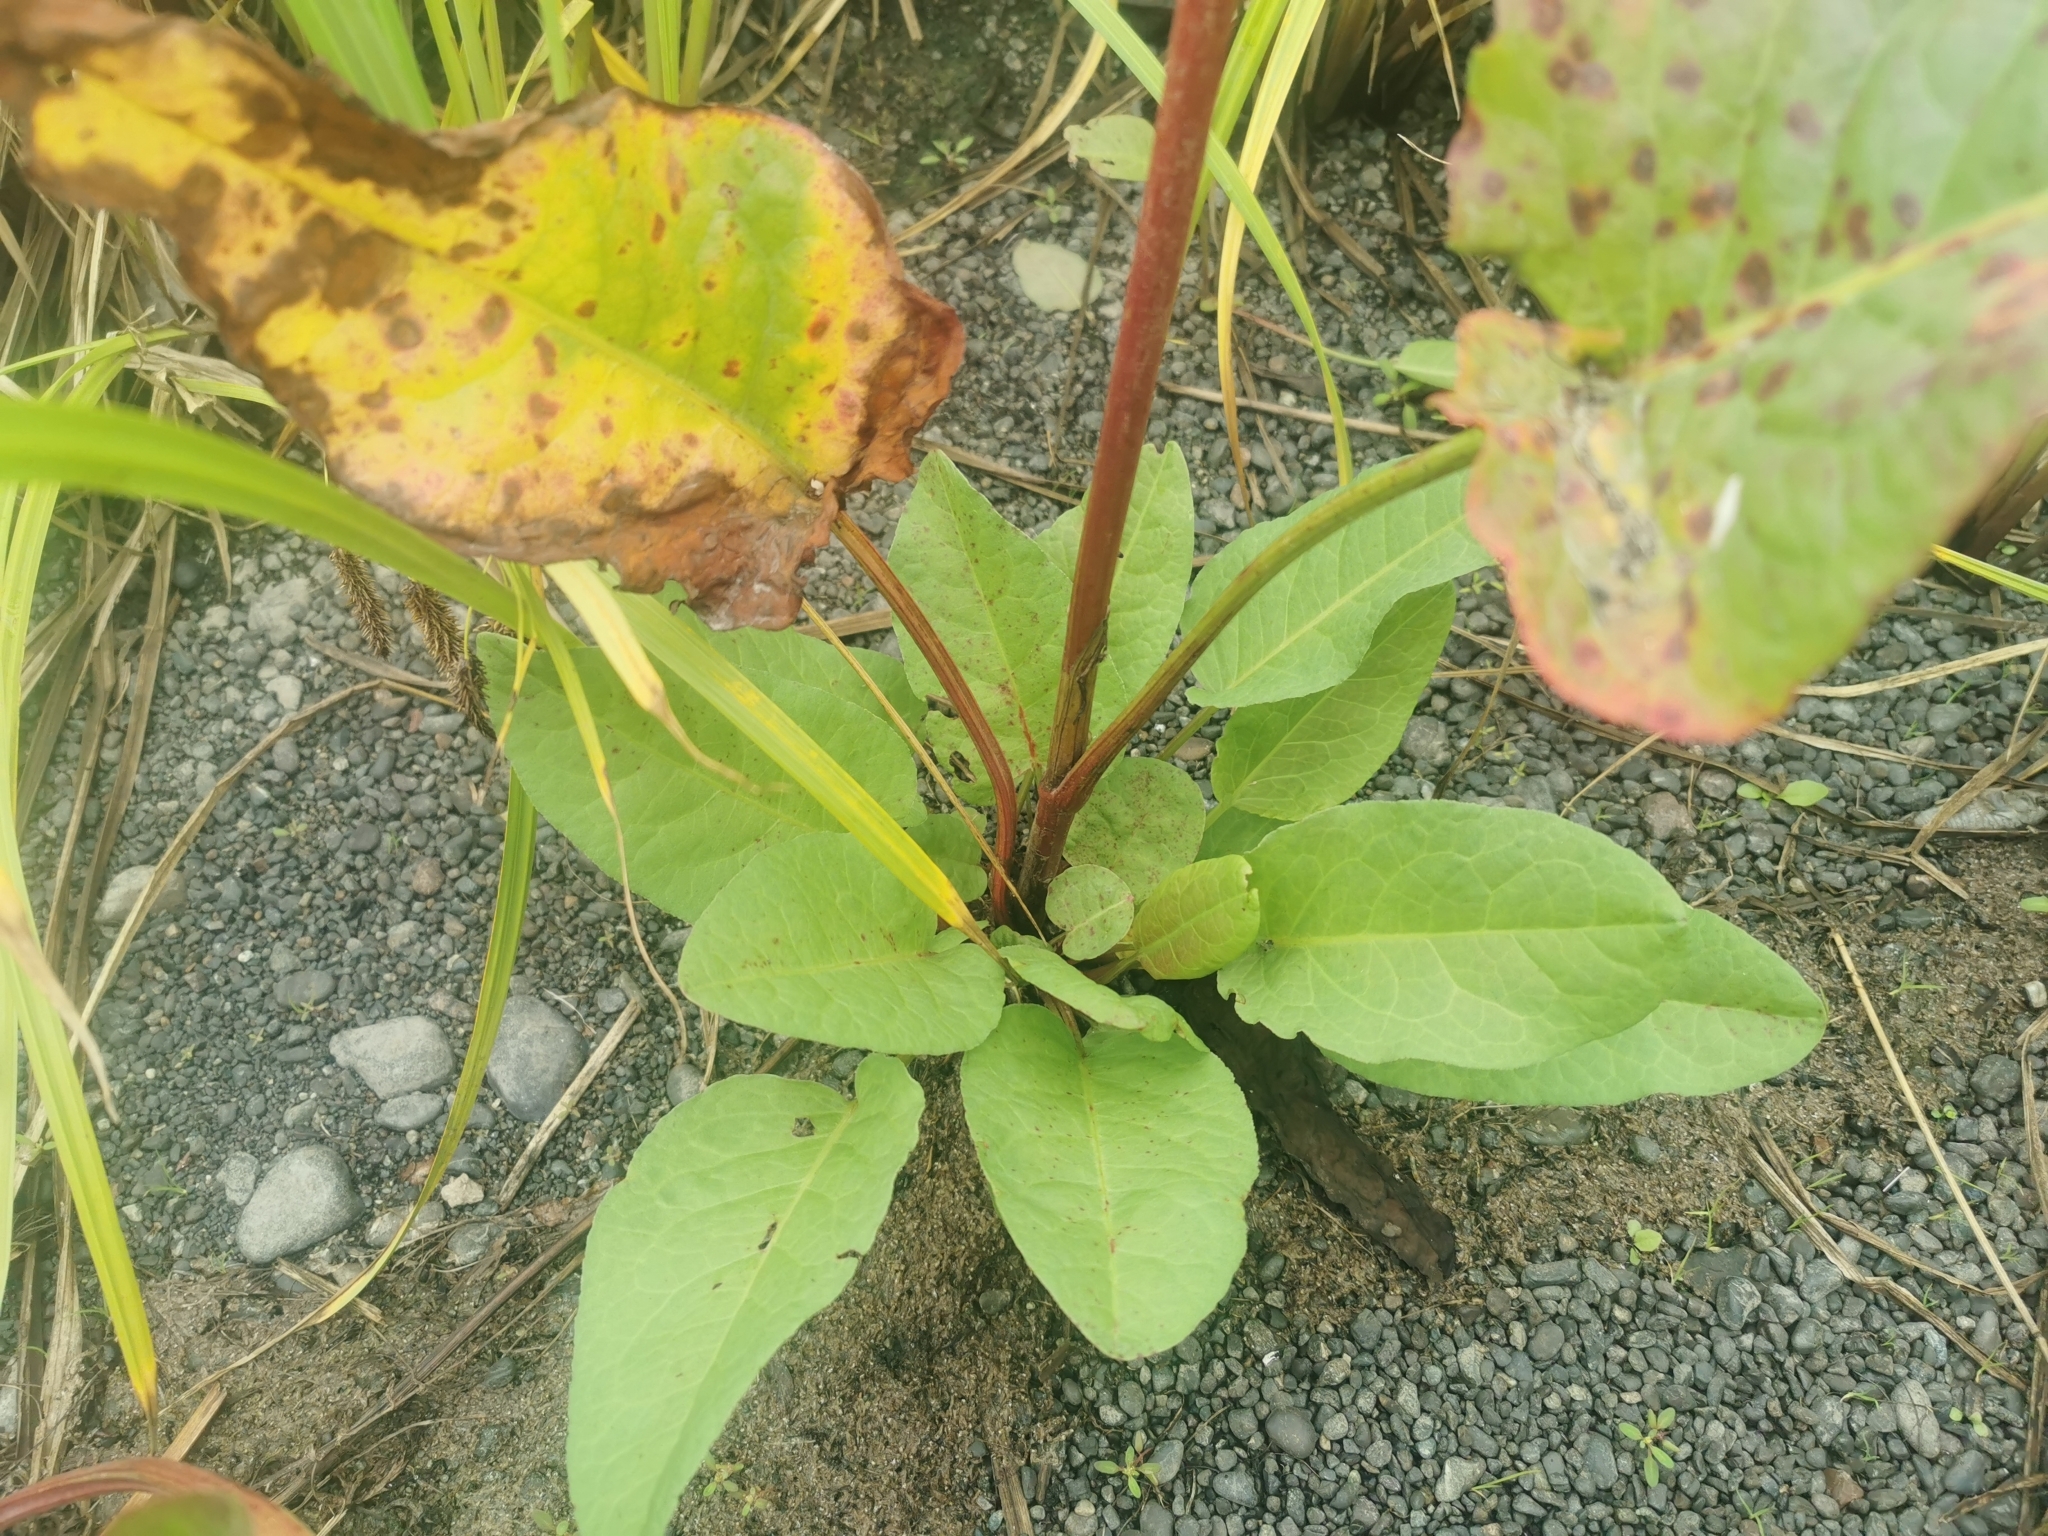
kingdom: Plantae
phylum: Tracheophyta
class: Magnoliopsida
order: Caryophyllales
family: Polygonaceae
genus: Rumex
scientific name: Rumex aquaticus
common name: Scottish dock
